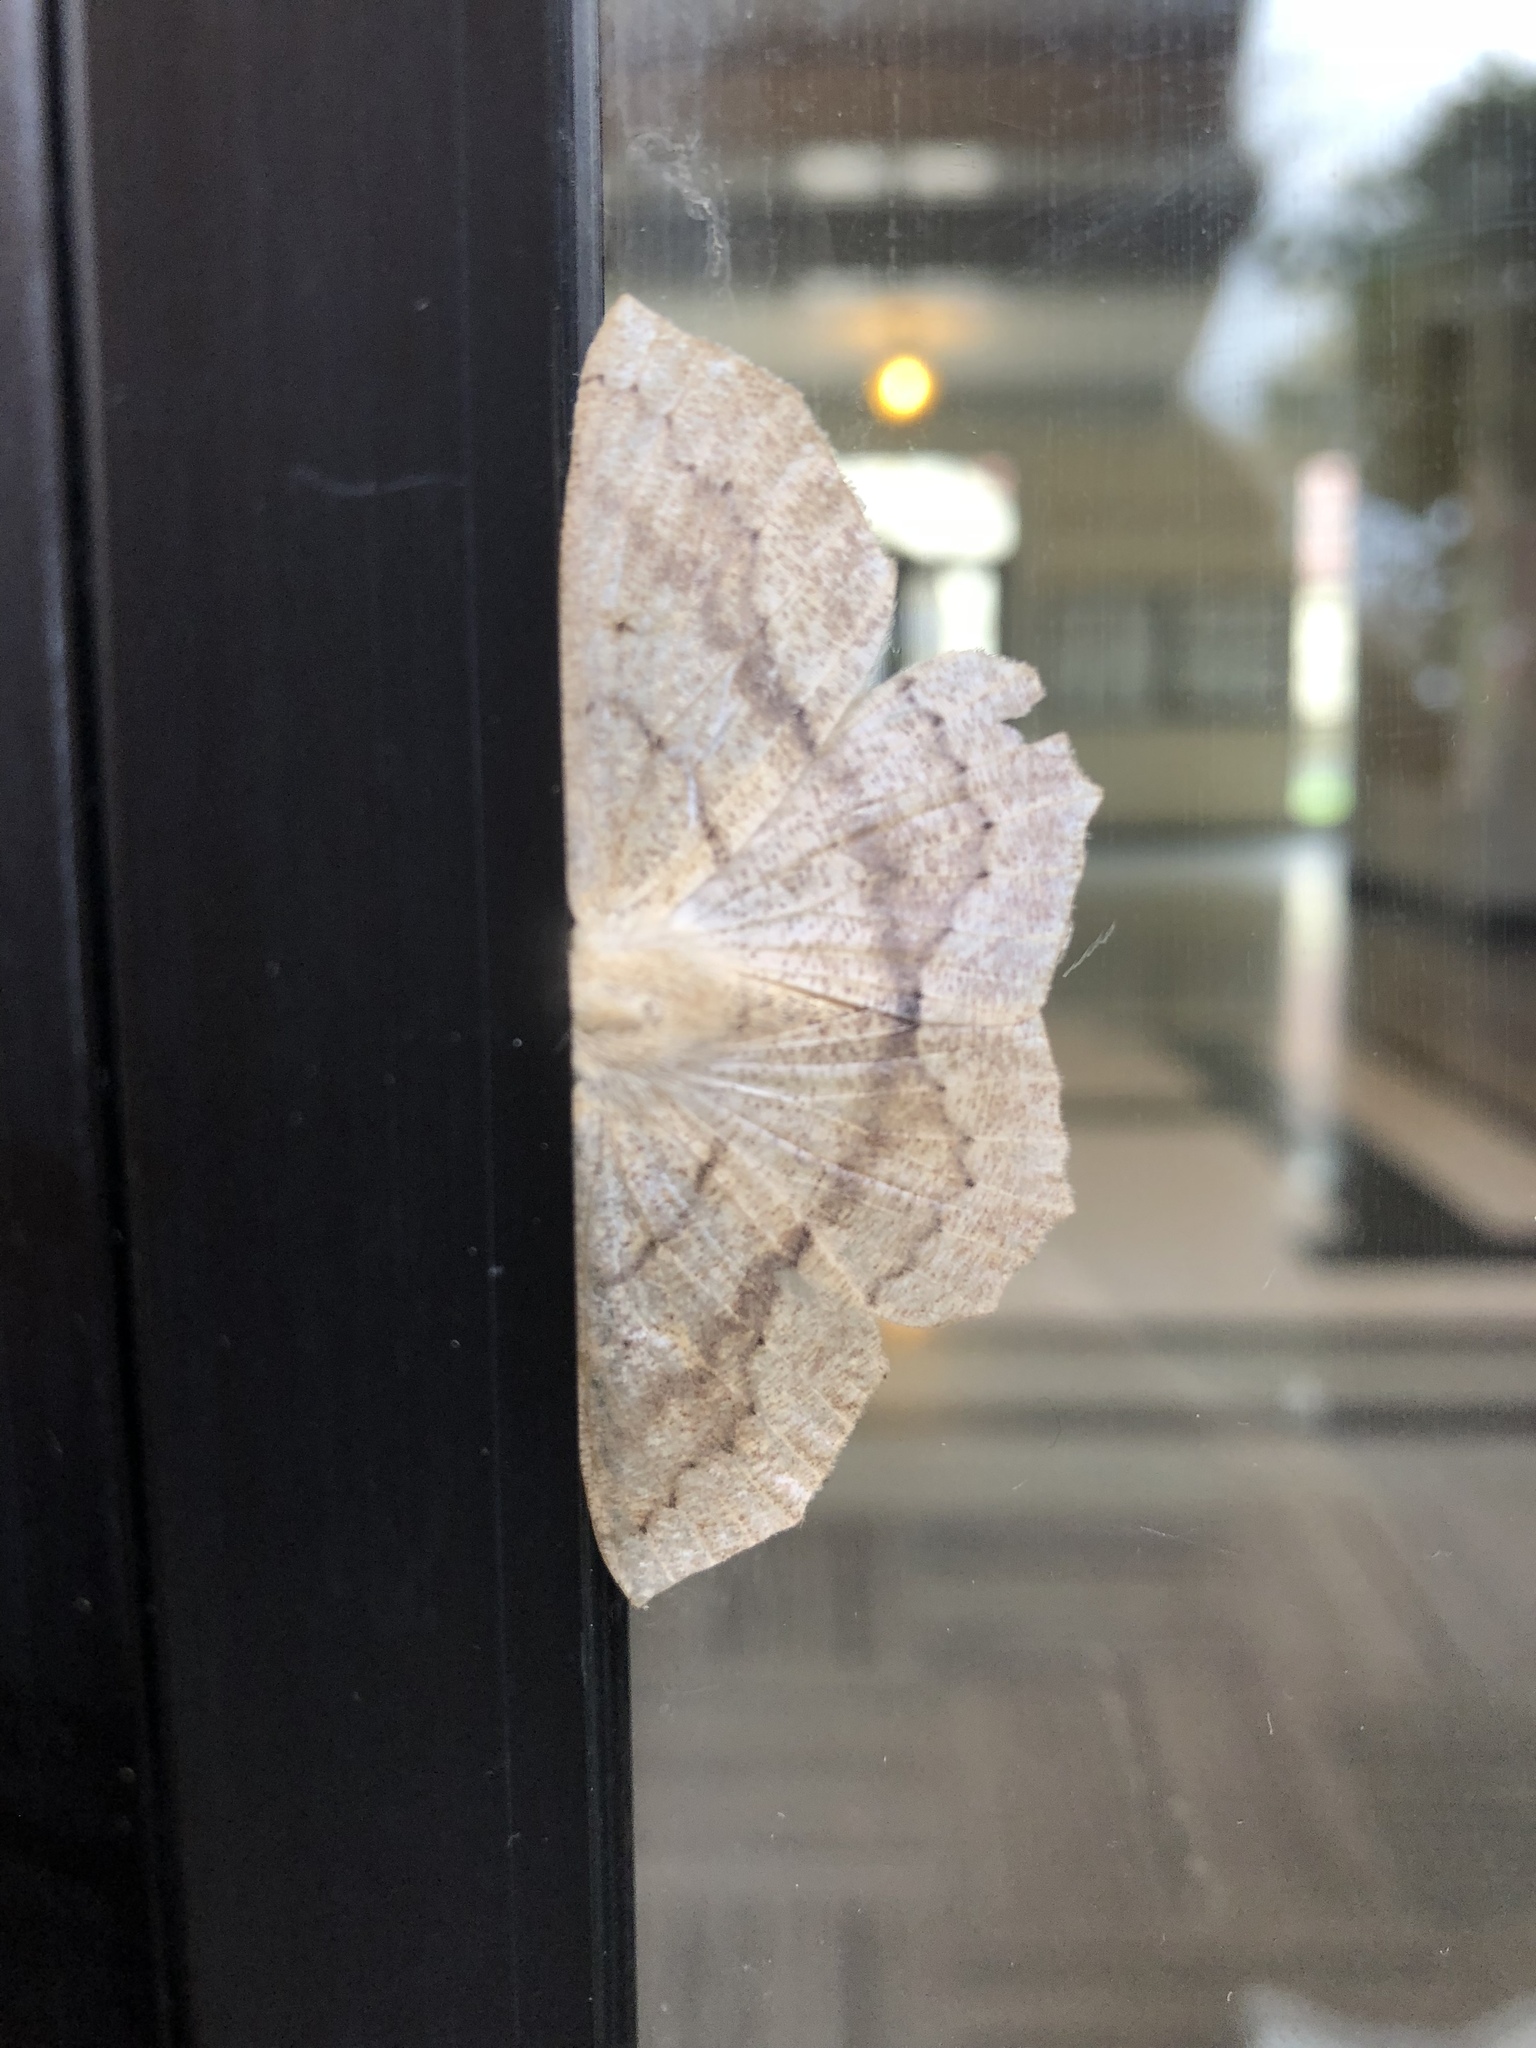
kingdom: Animalia
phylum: Arthropoda
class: Insecta
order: Lepidoptera
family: Geometridae
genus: Sabulodes
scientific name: Sabulodes aegrotata
